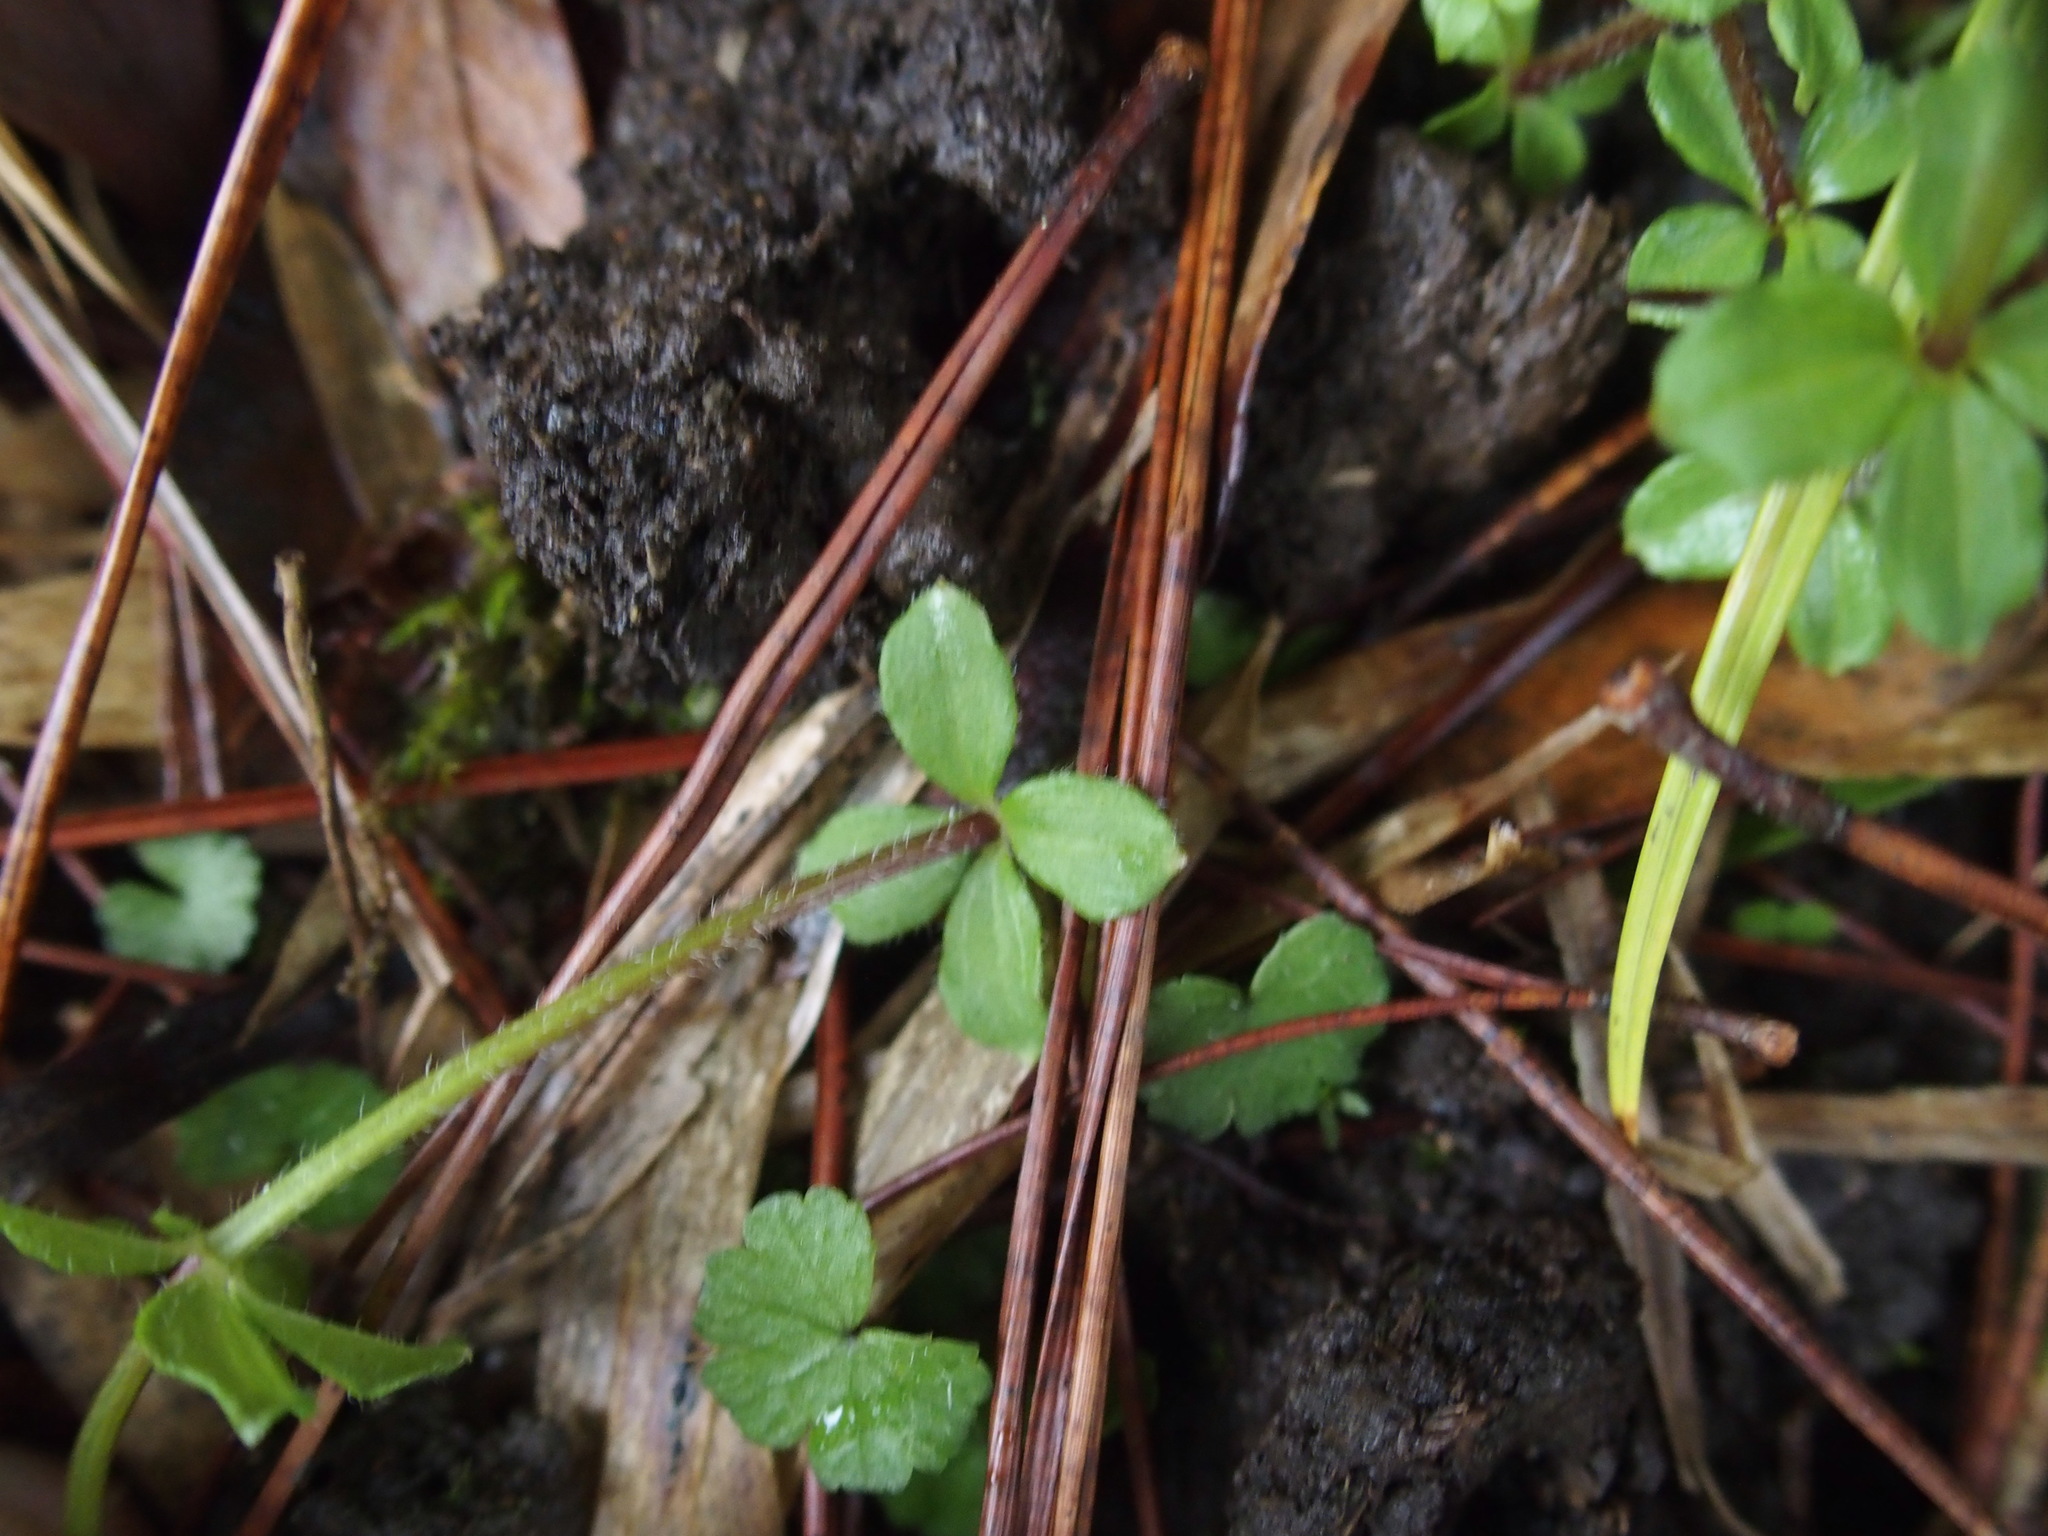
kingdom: Plantae
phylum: Tracheophyta
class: Magnoliopsida
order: Gentianales
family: Rubiaceae
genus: Galium
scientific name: Galium formosense
